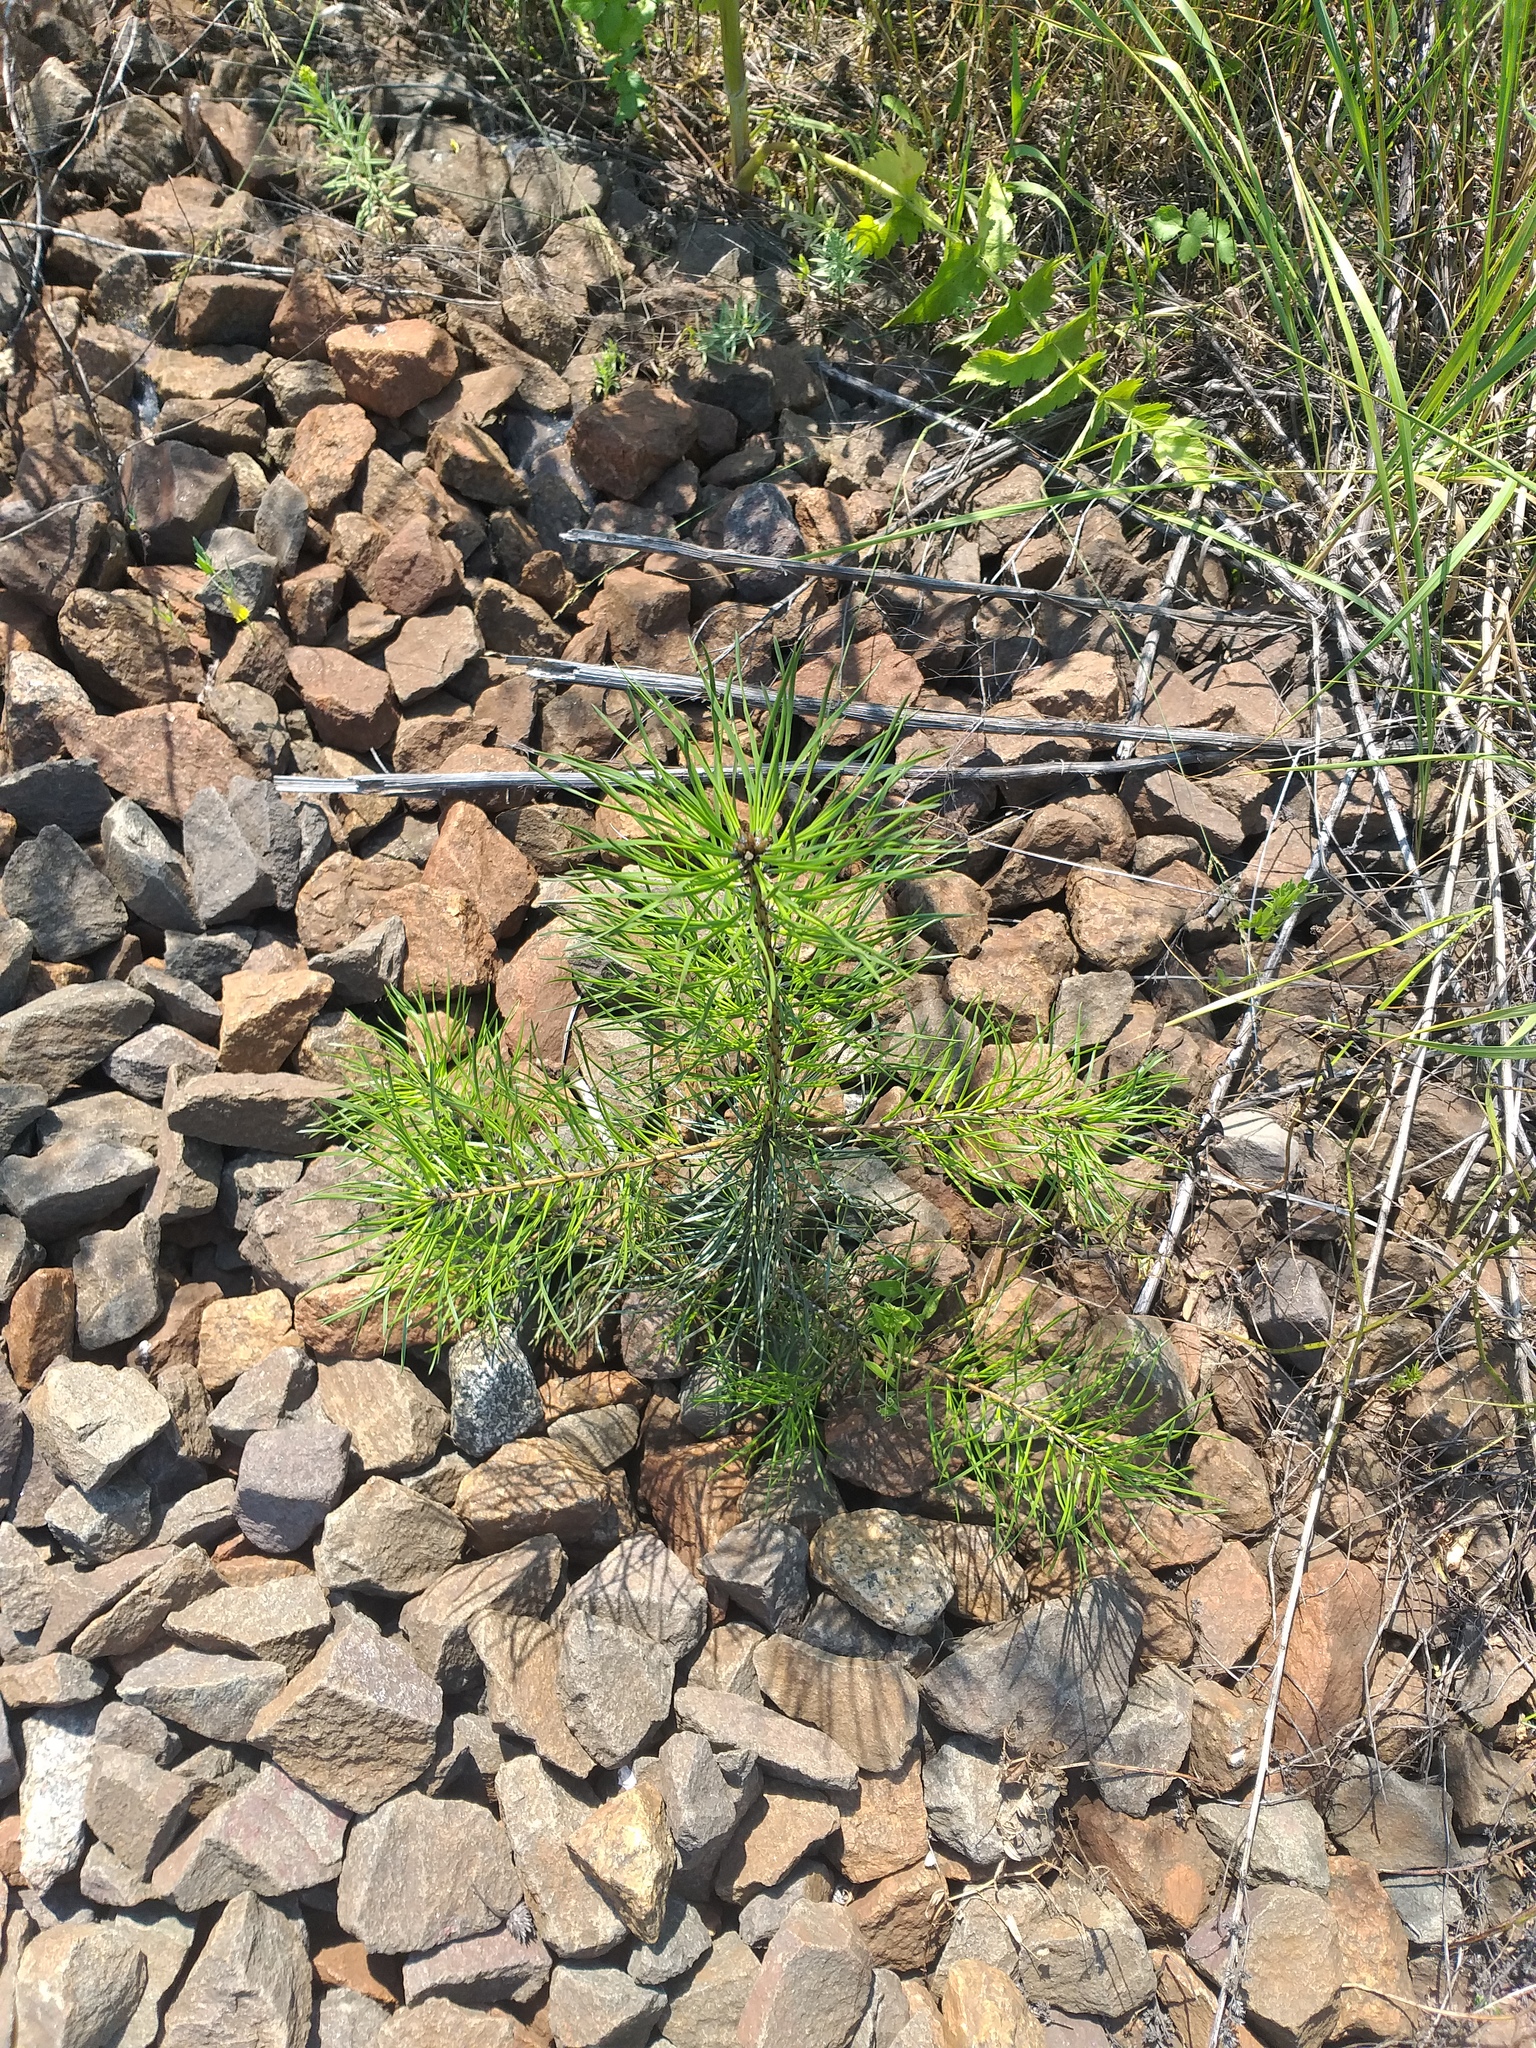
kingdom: Plantae
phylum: Tracheophyta
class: Pinopsida
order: Pinales
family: Pinaceae
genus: Pinus
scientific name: Pinus sylvestris
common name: Scots pine
